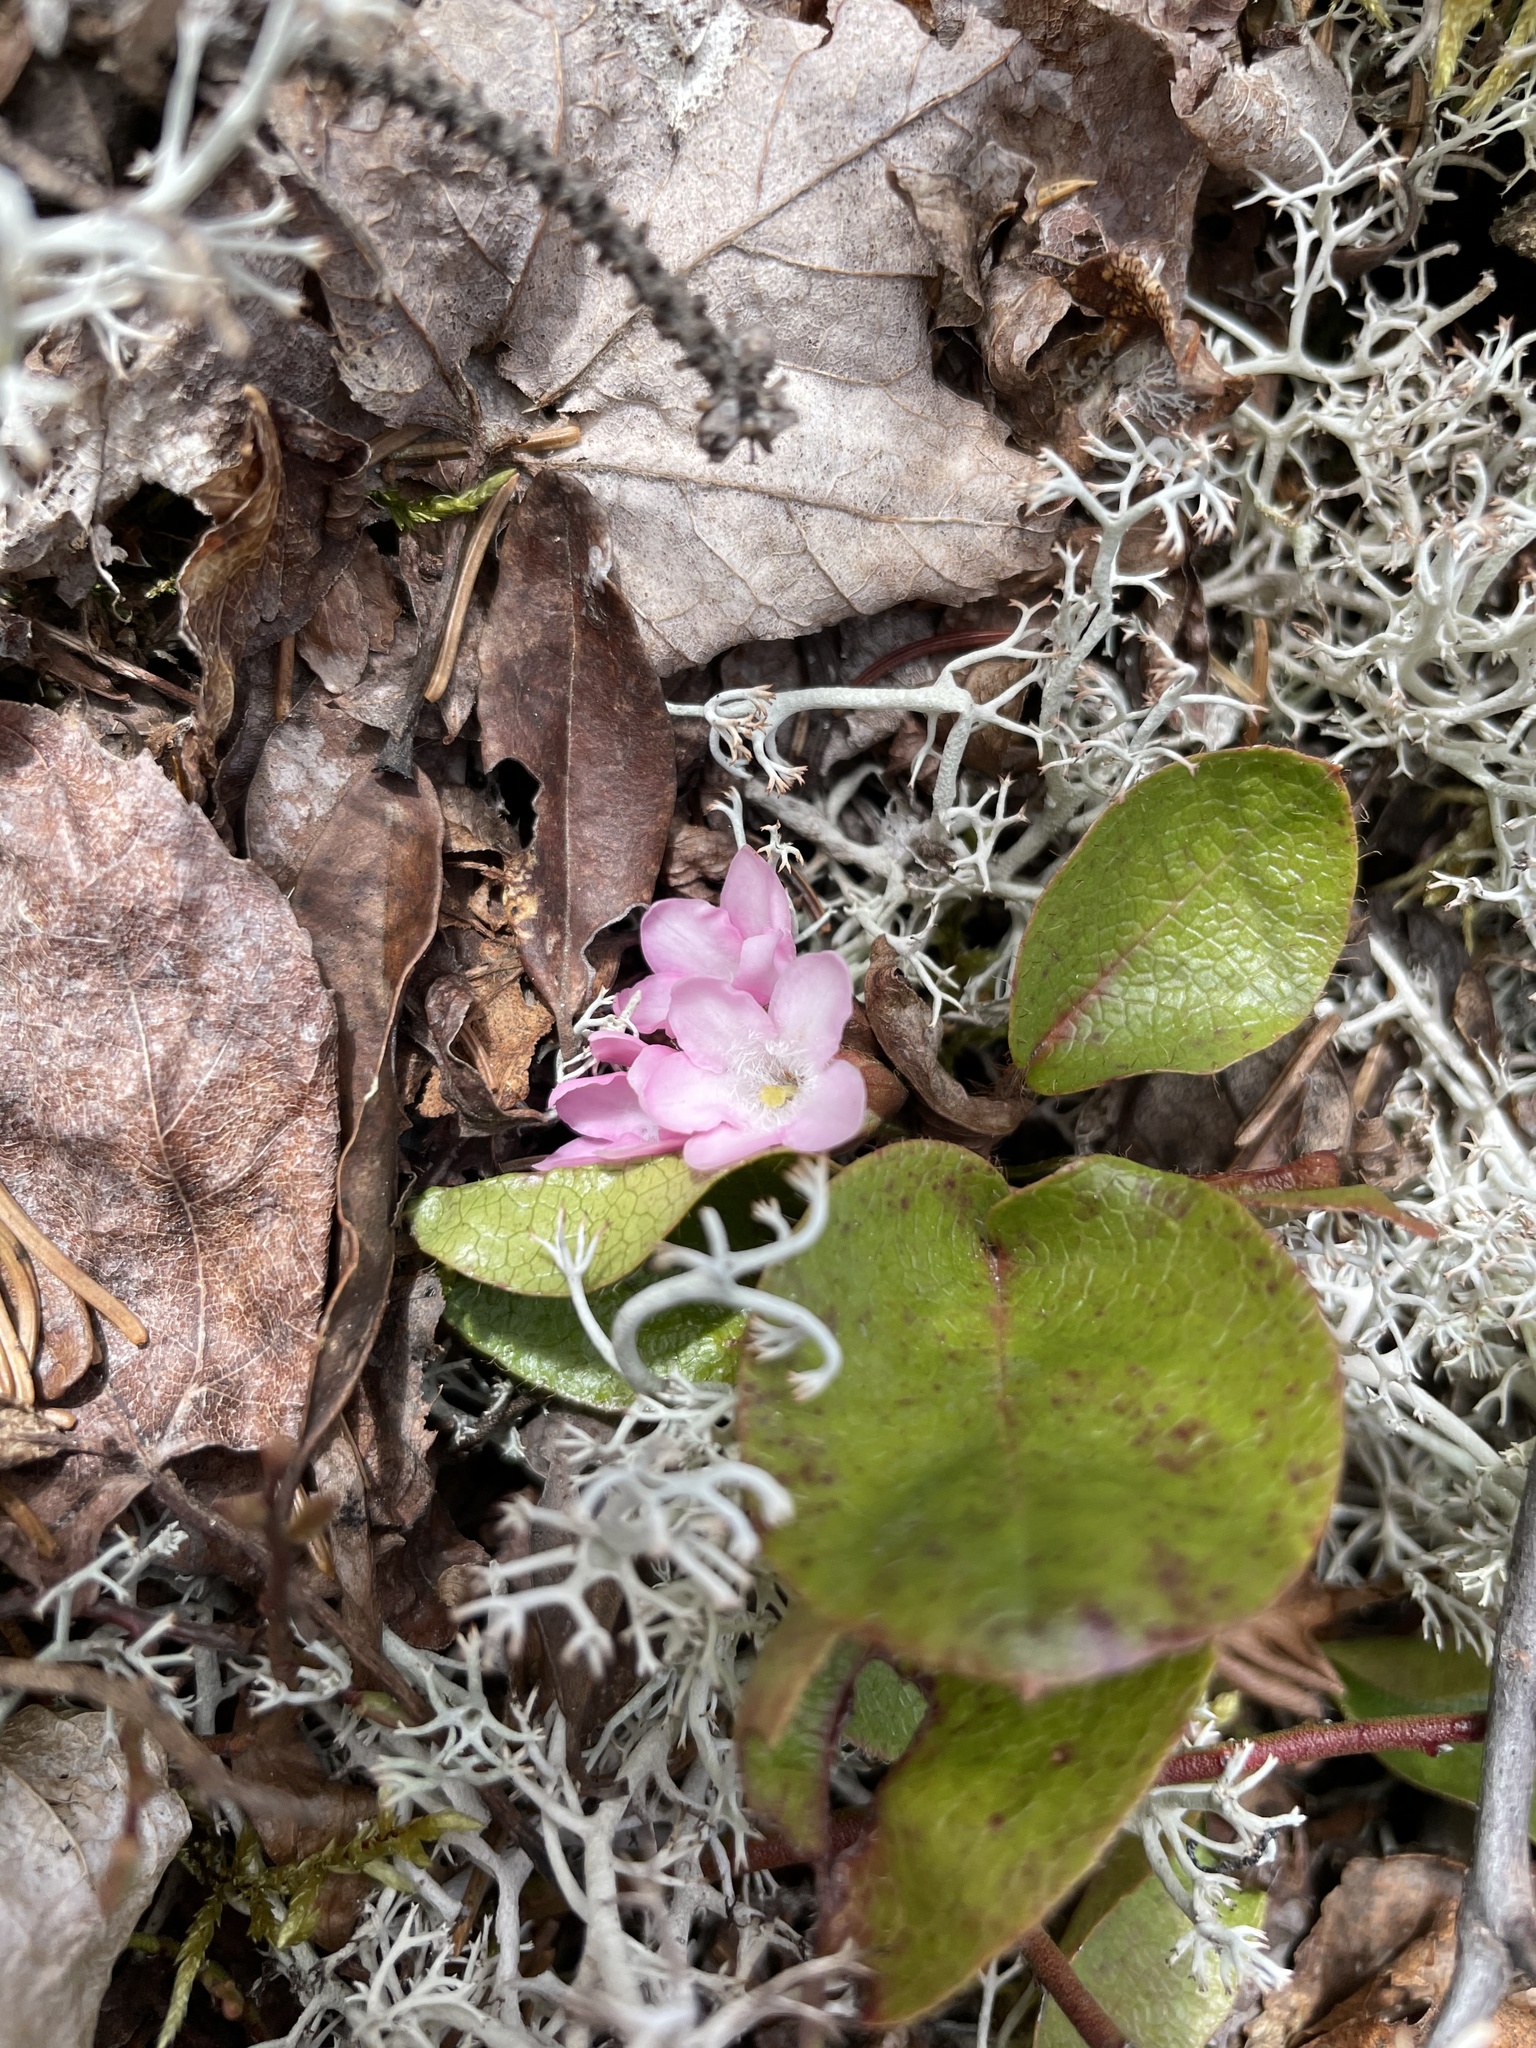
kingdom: Plantae
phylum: Tracheophyta
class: Magnoliopsida
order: Ericales
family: Ericaceae
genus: Epigaea
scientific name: Epigaea repens
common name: Gravelroot
